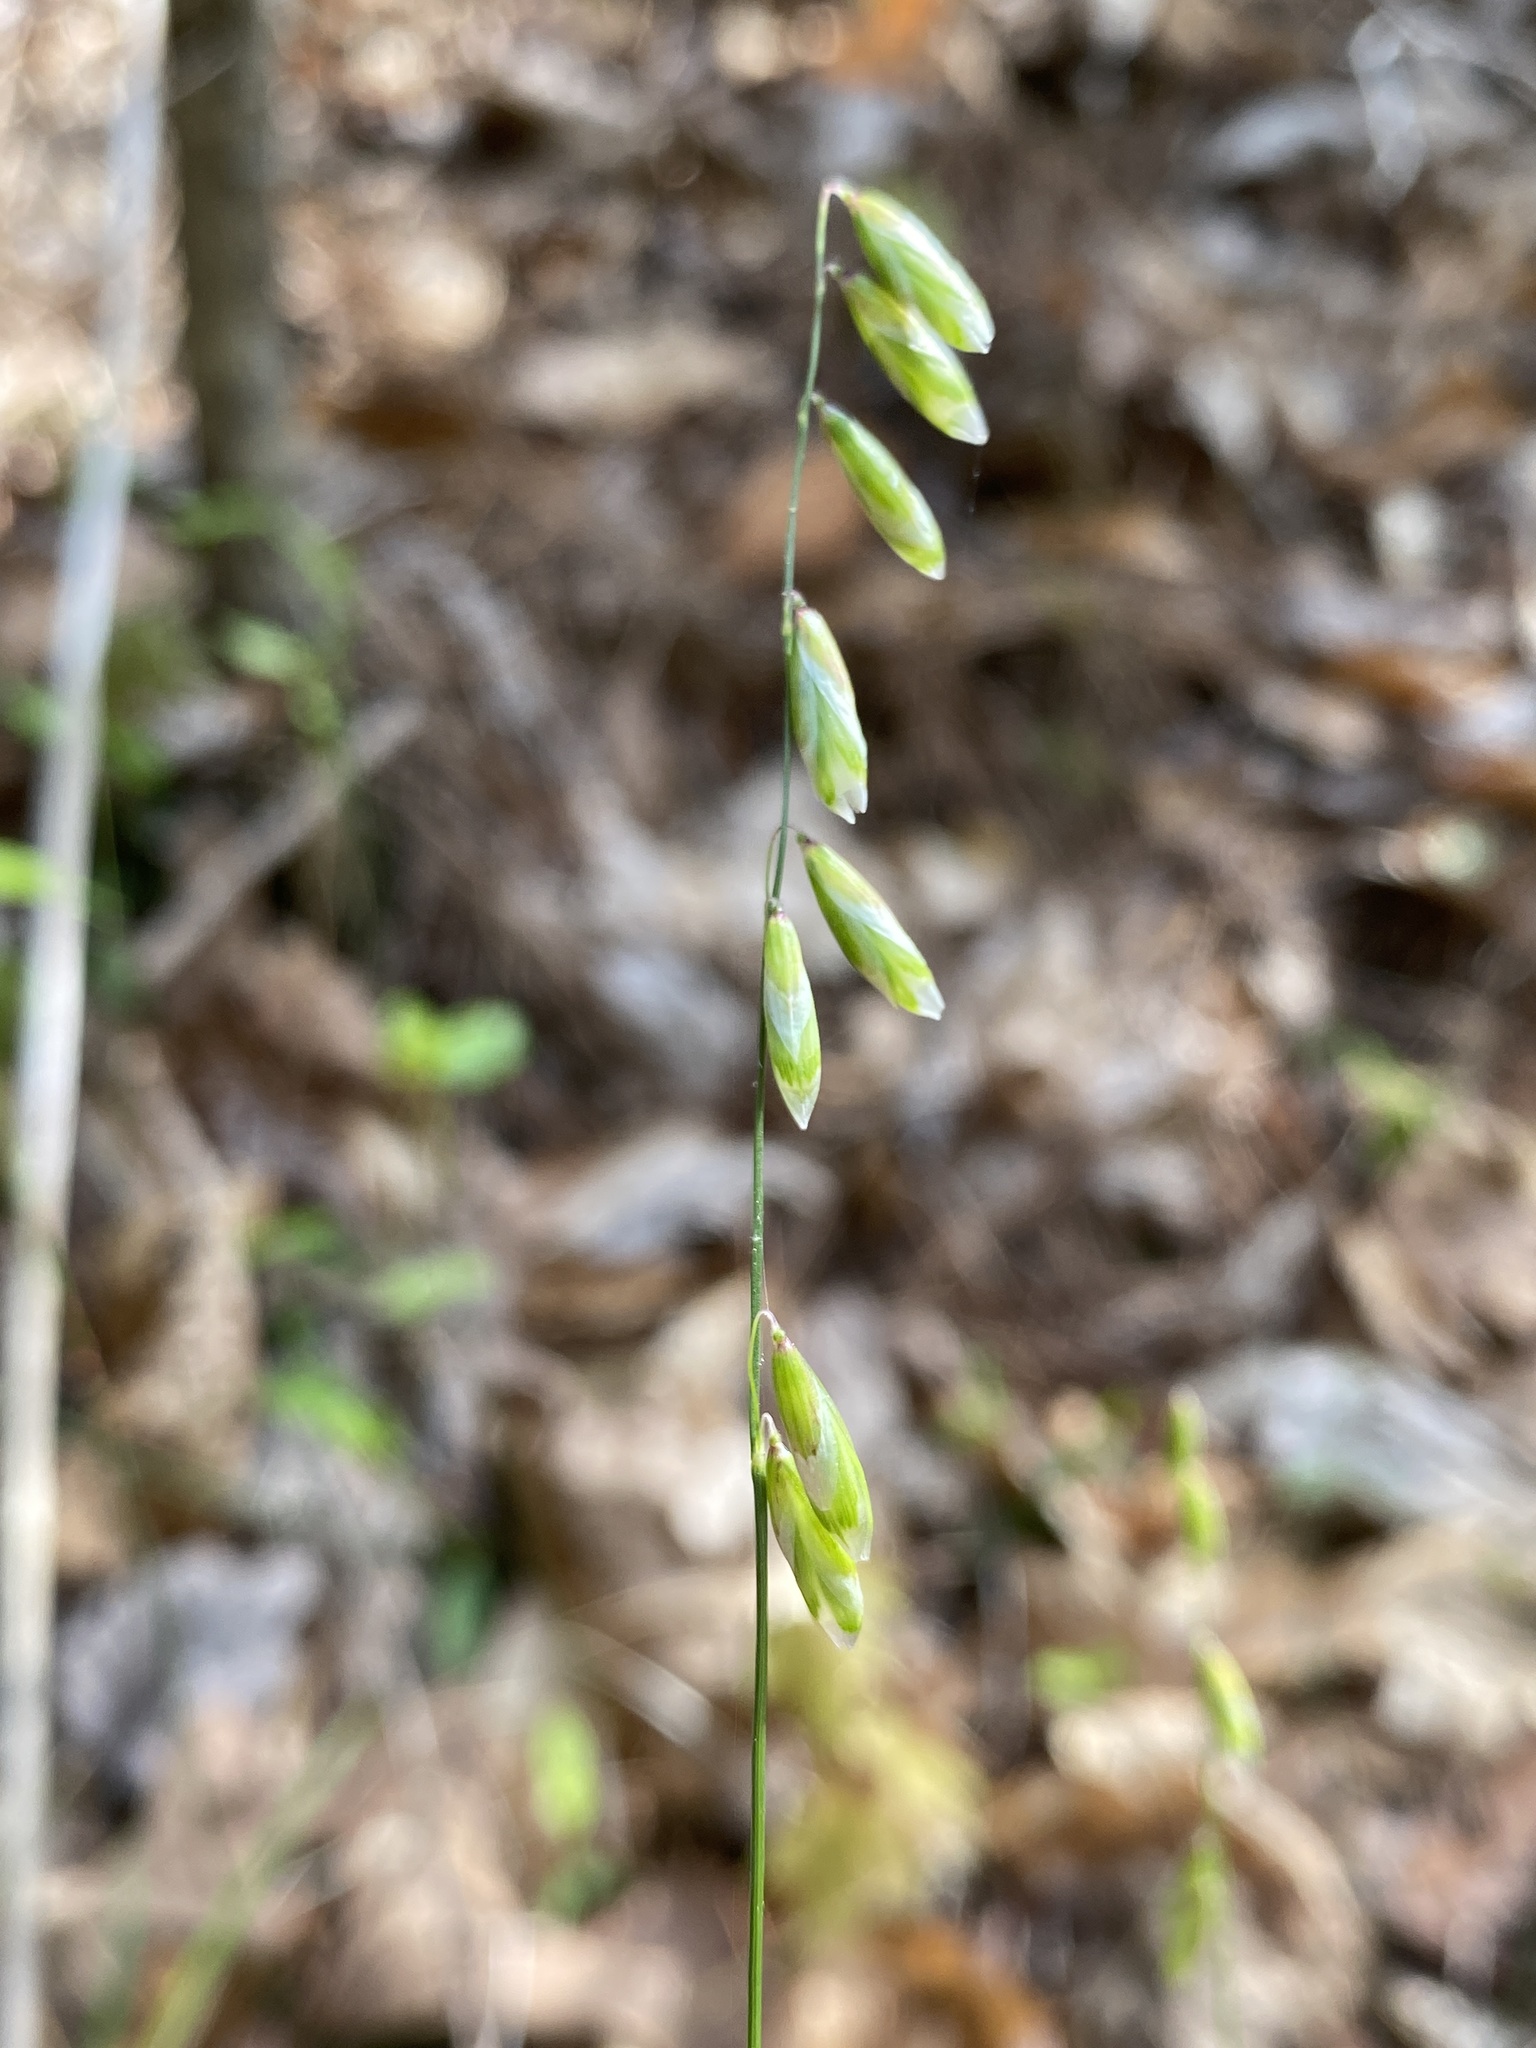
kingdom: Plantae
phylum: Tracheophyta
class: Liliopsida
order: Poales
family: Poaceae
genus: Melica
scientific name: Melica mutica
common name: Two-flower melic
